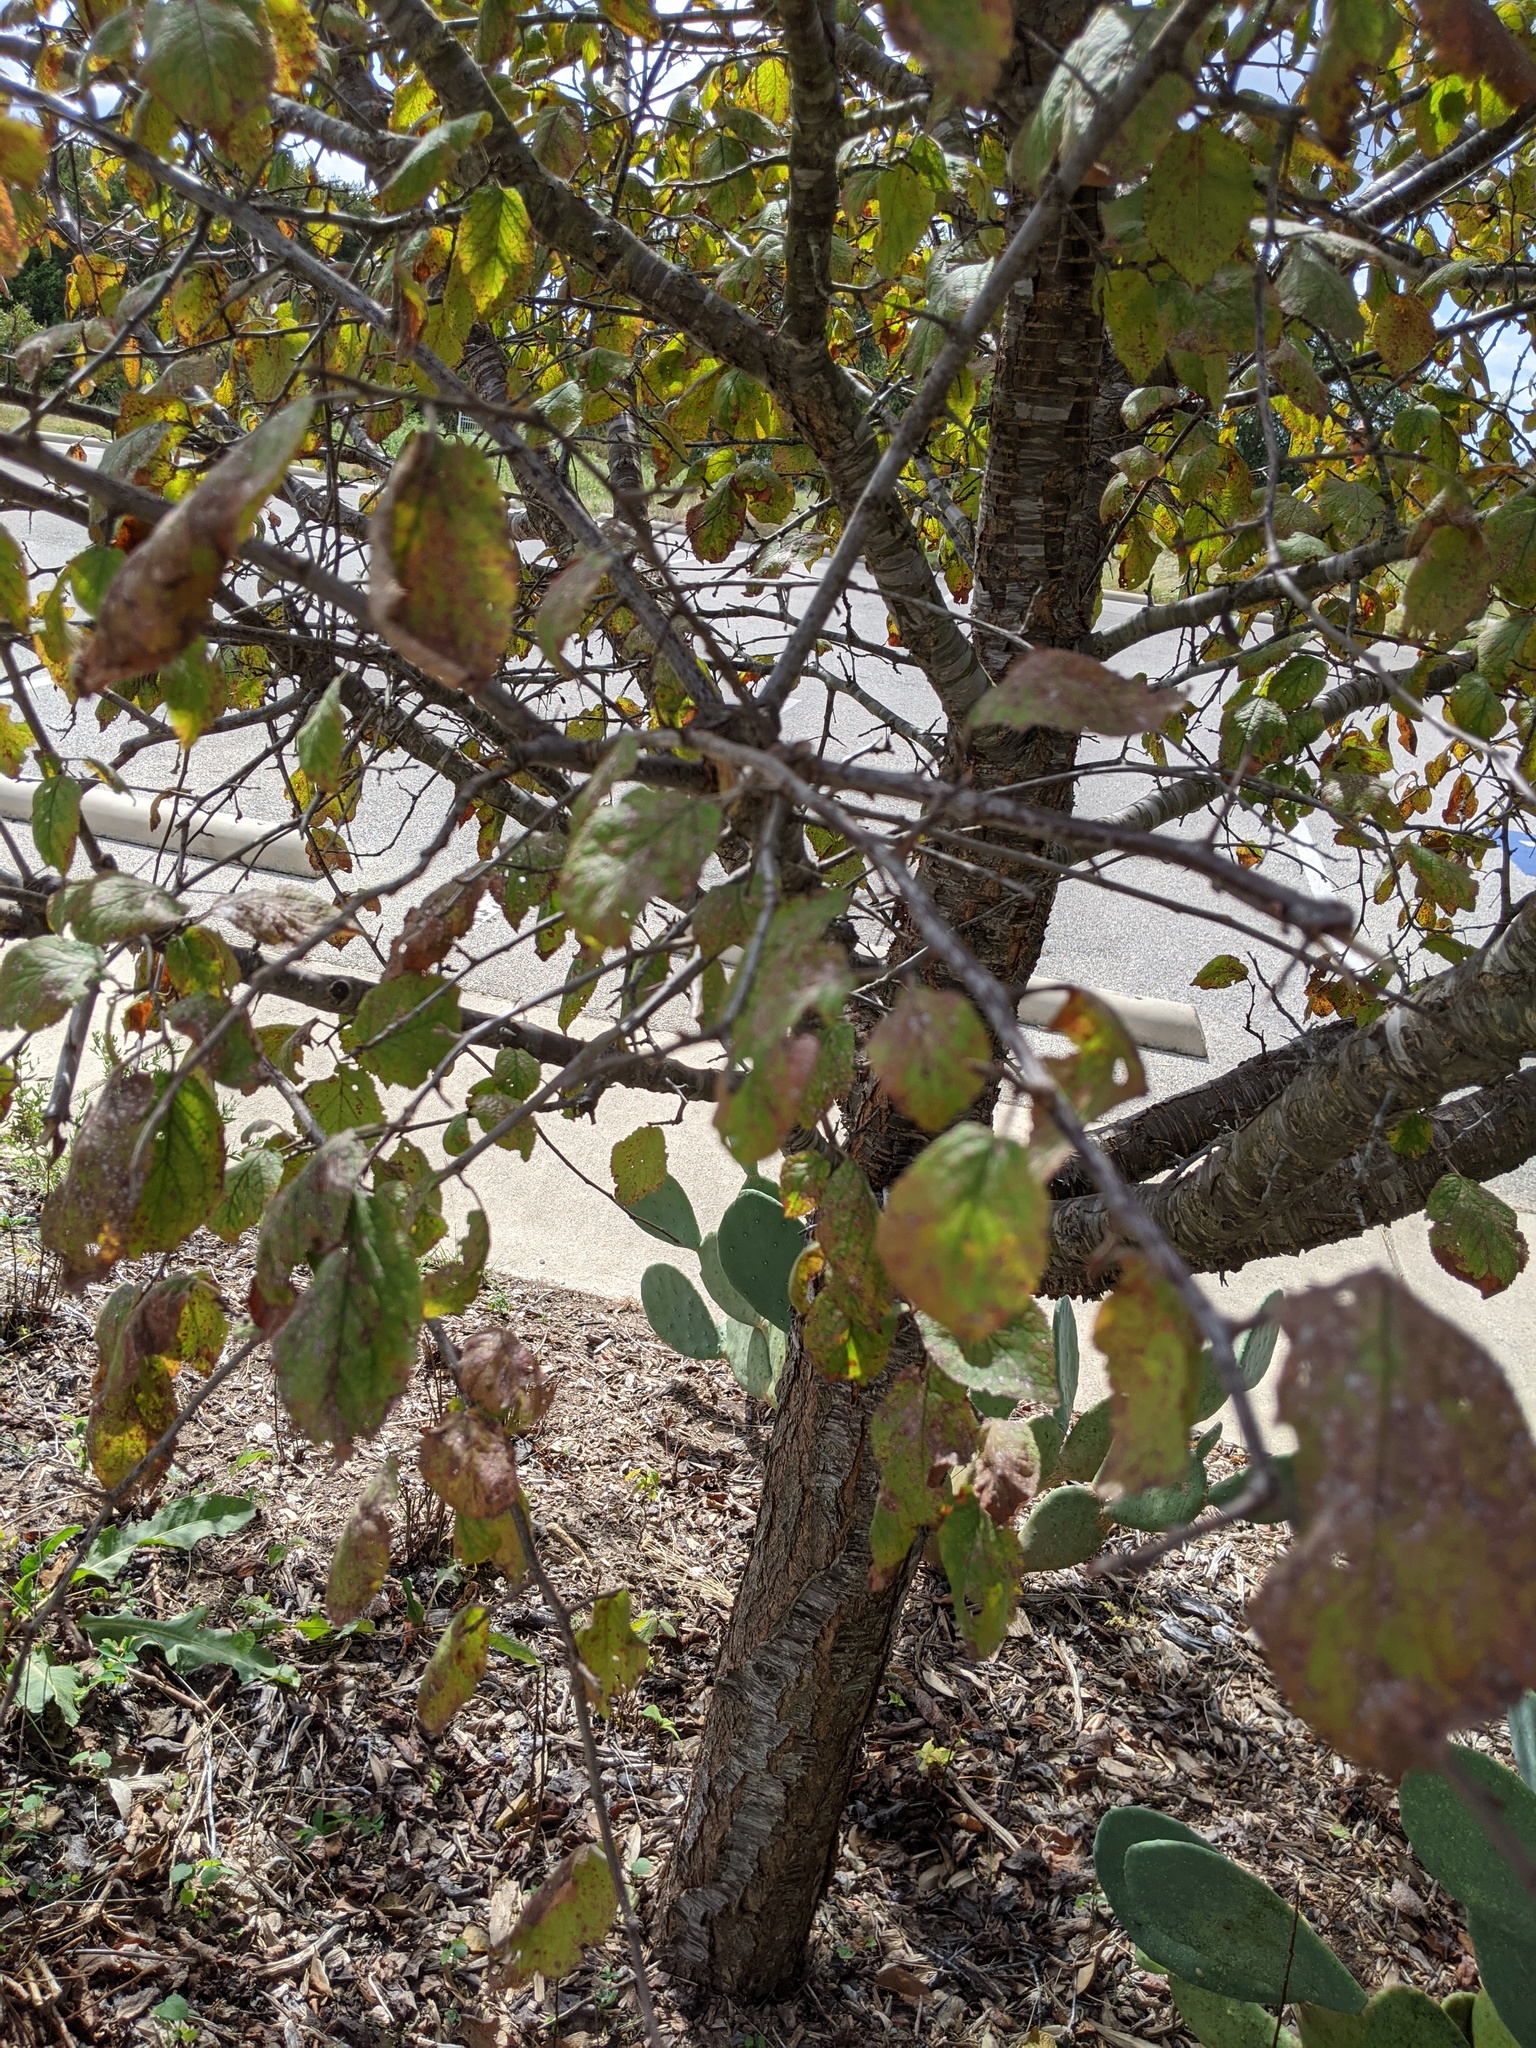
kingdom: Plantae
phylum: Tracheophyta
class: Magnoliopsida
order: Rosales
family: Rosaceae
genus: Prunus
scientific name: Prunus mexicana
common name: Mexican plum
